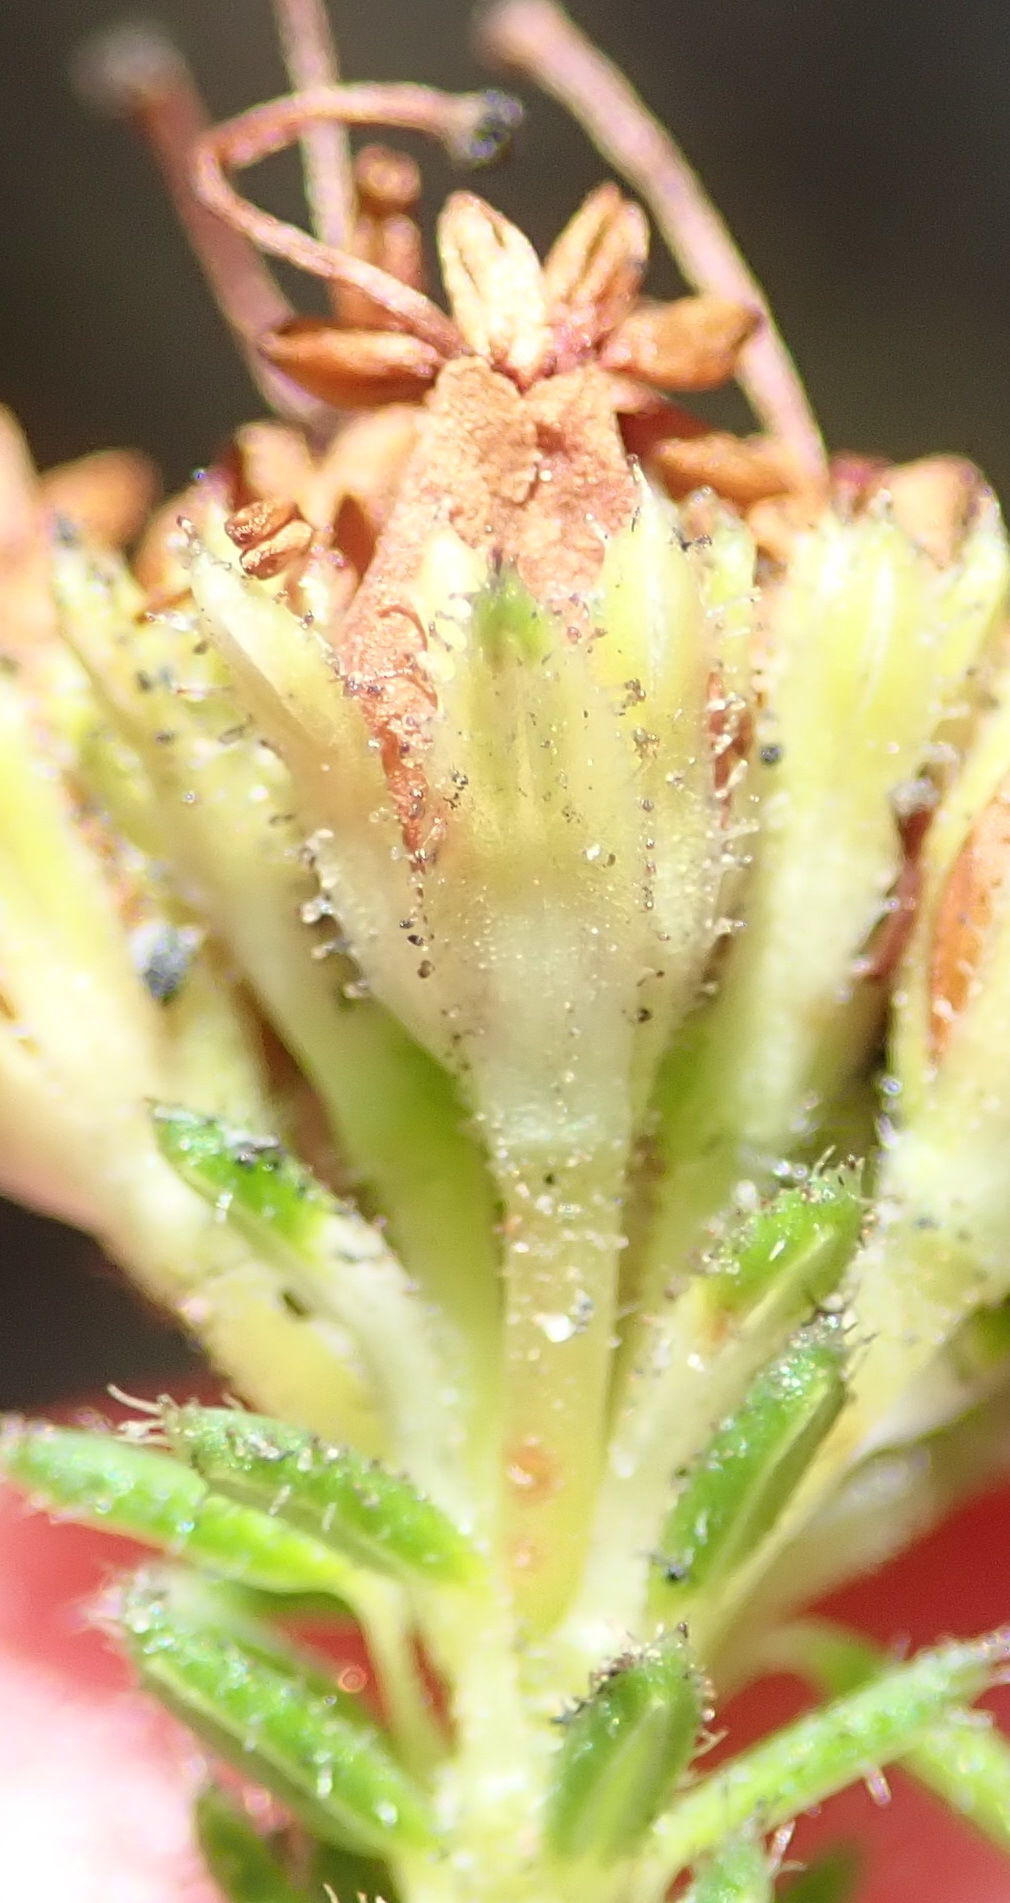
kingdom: Plantae
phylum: Tracheophyta
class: Magnoliopsida
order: Ericales
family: Ericaceae
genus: Erica
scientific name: Erica stylaris
